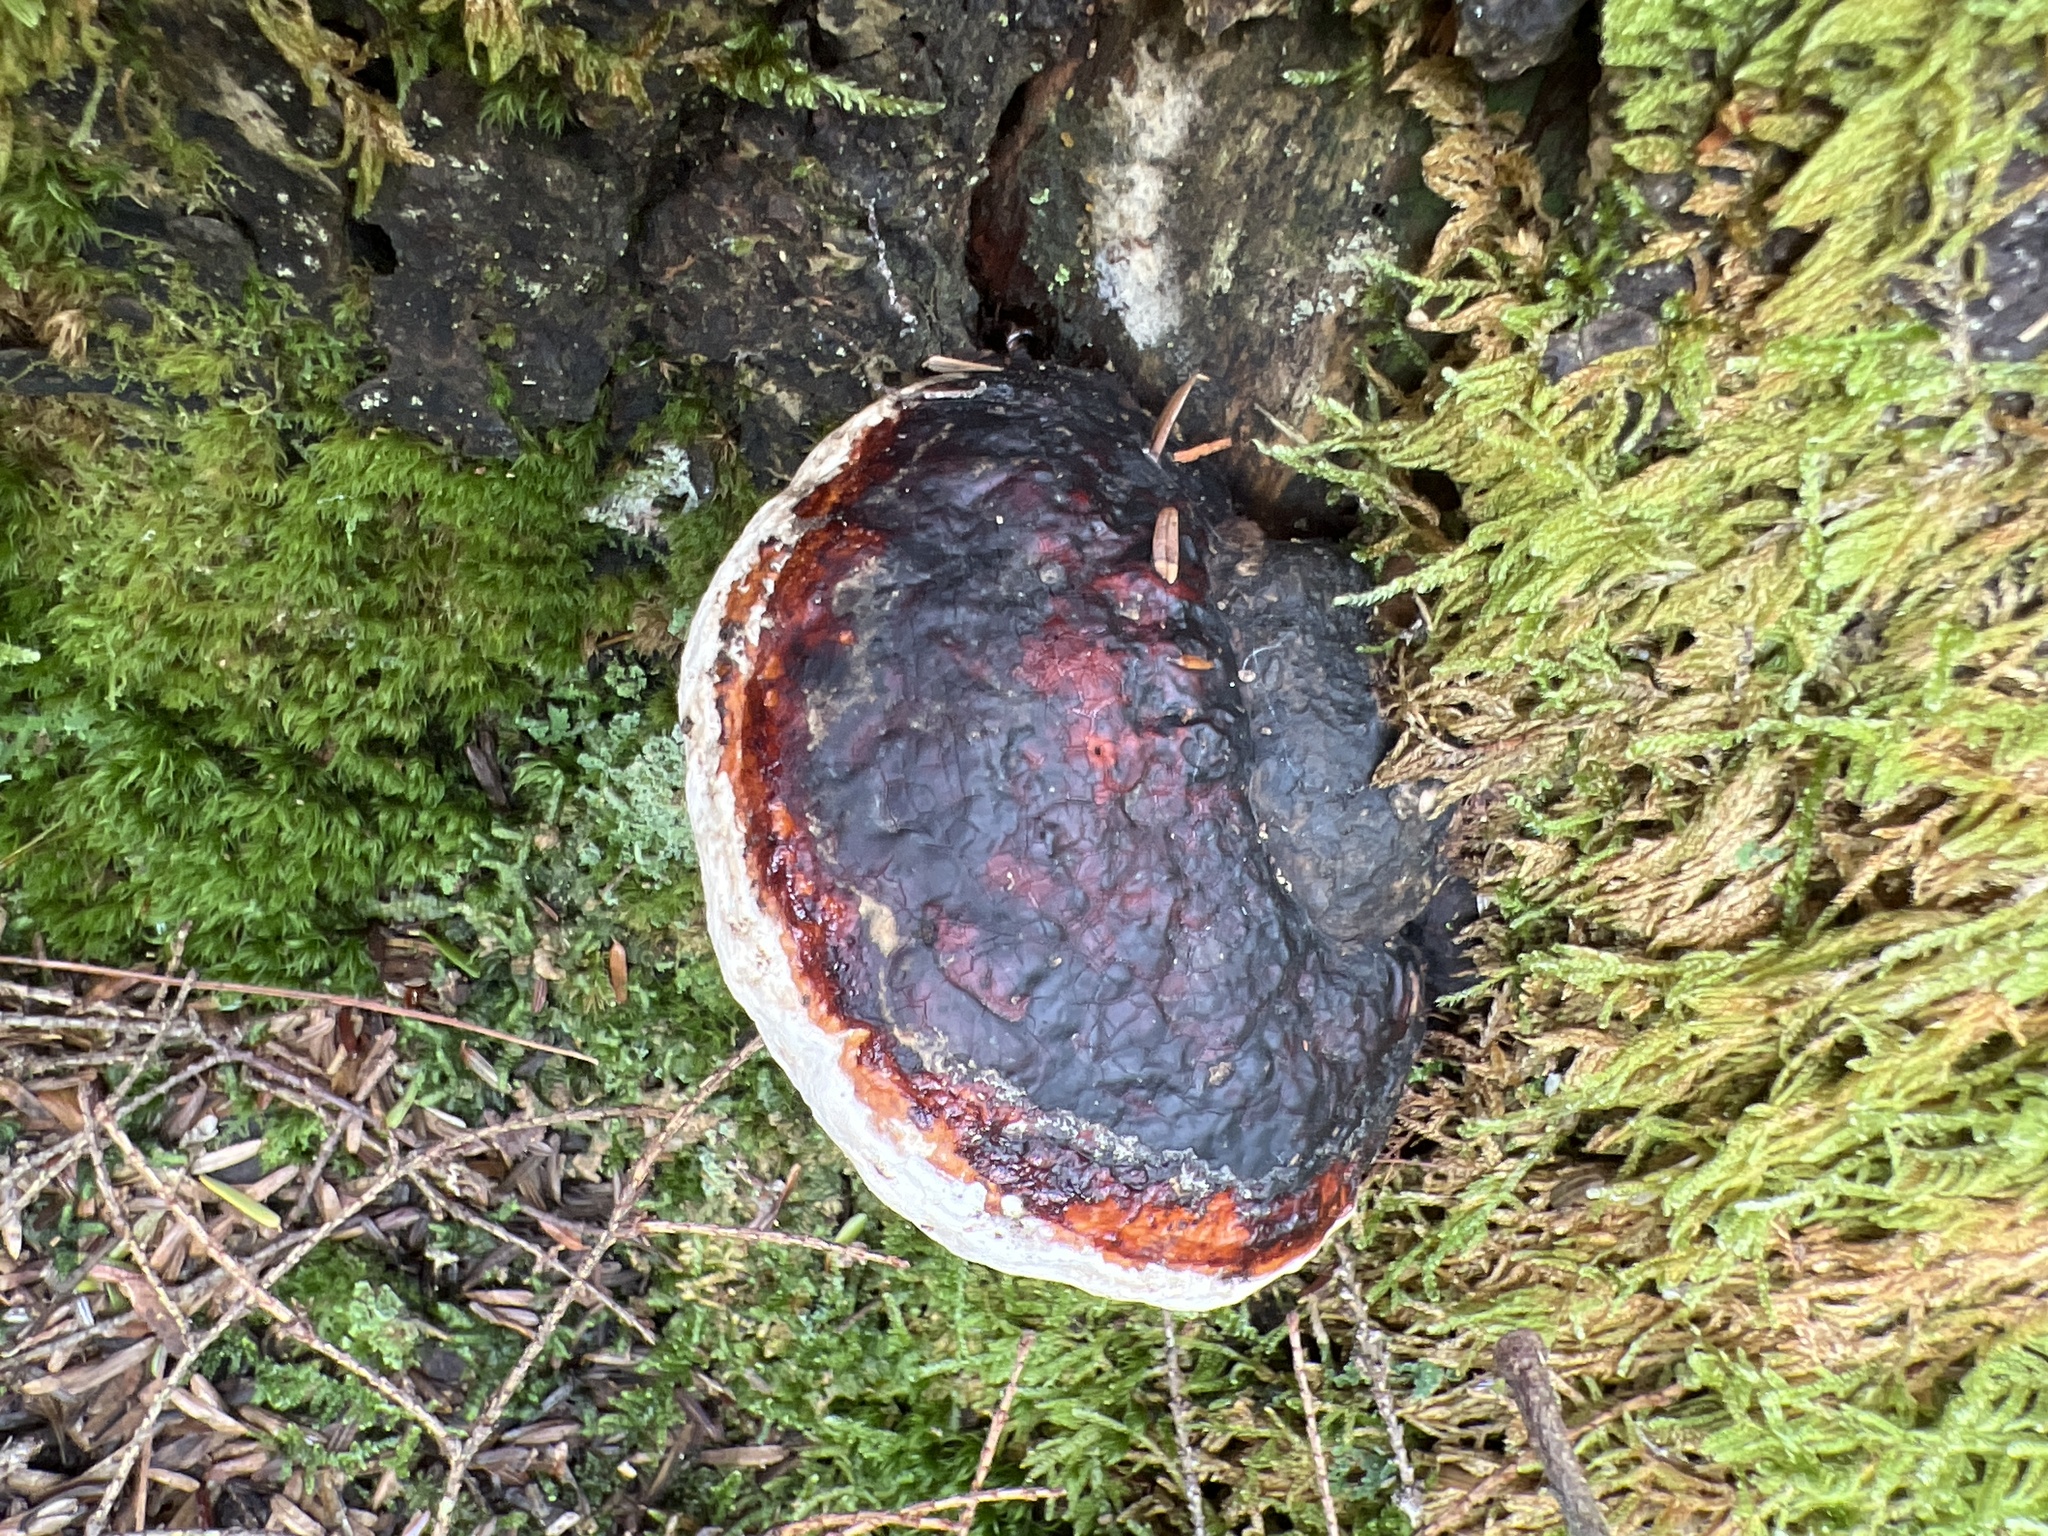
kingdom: Fungi
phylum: Basidiomycota
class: Agaricomycetes
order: Polyporales
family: Fomitopsidaceae
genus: Fomitopsis
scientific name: Fomitopsis mounceae
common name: Northern red belt
